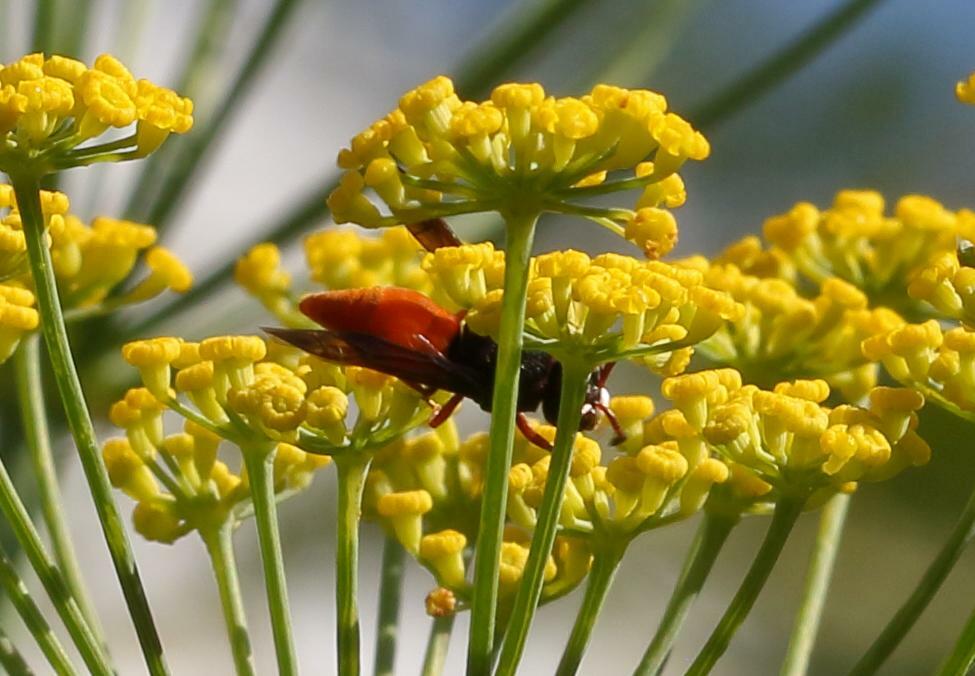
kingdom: Animalia
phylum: Arthropoda
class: Insecta
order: Hymenoptera
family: Eumenidae
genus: Tricarinodynerus
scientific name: Tricarinodynerus
